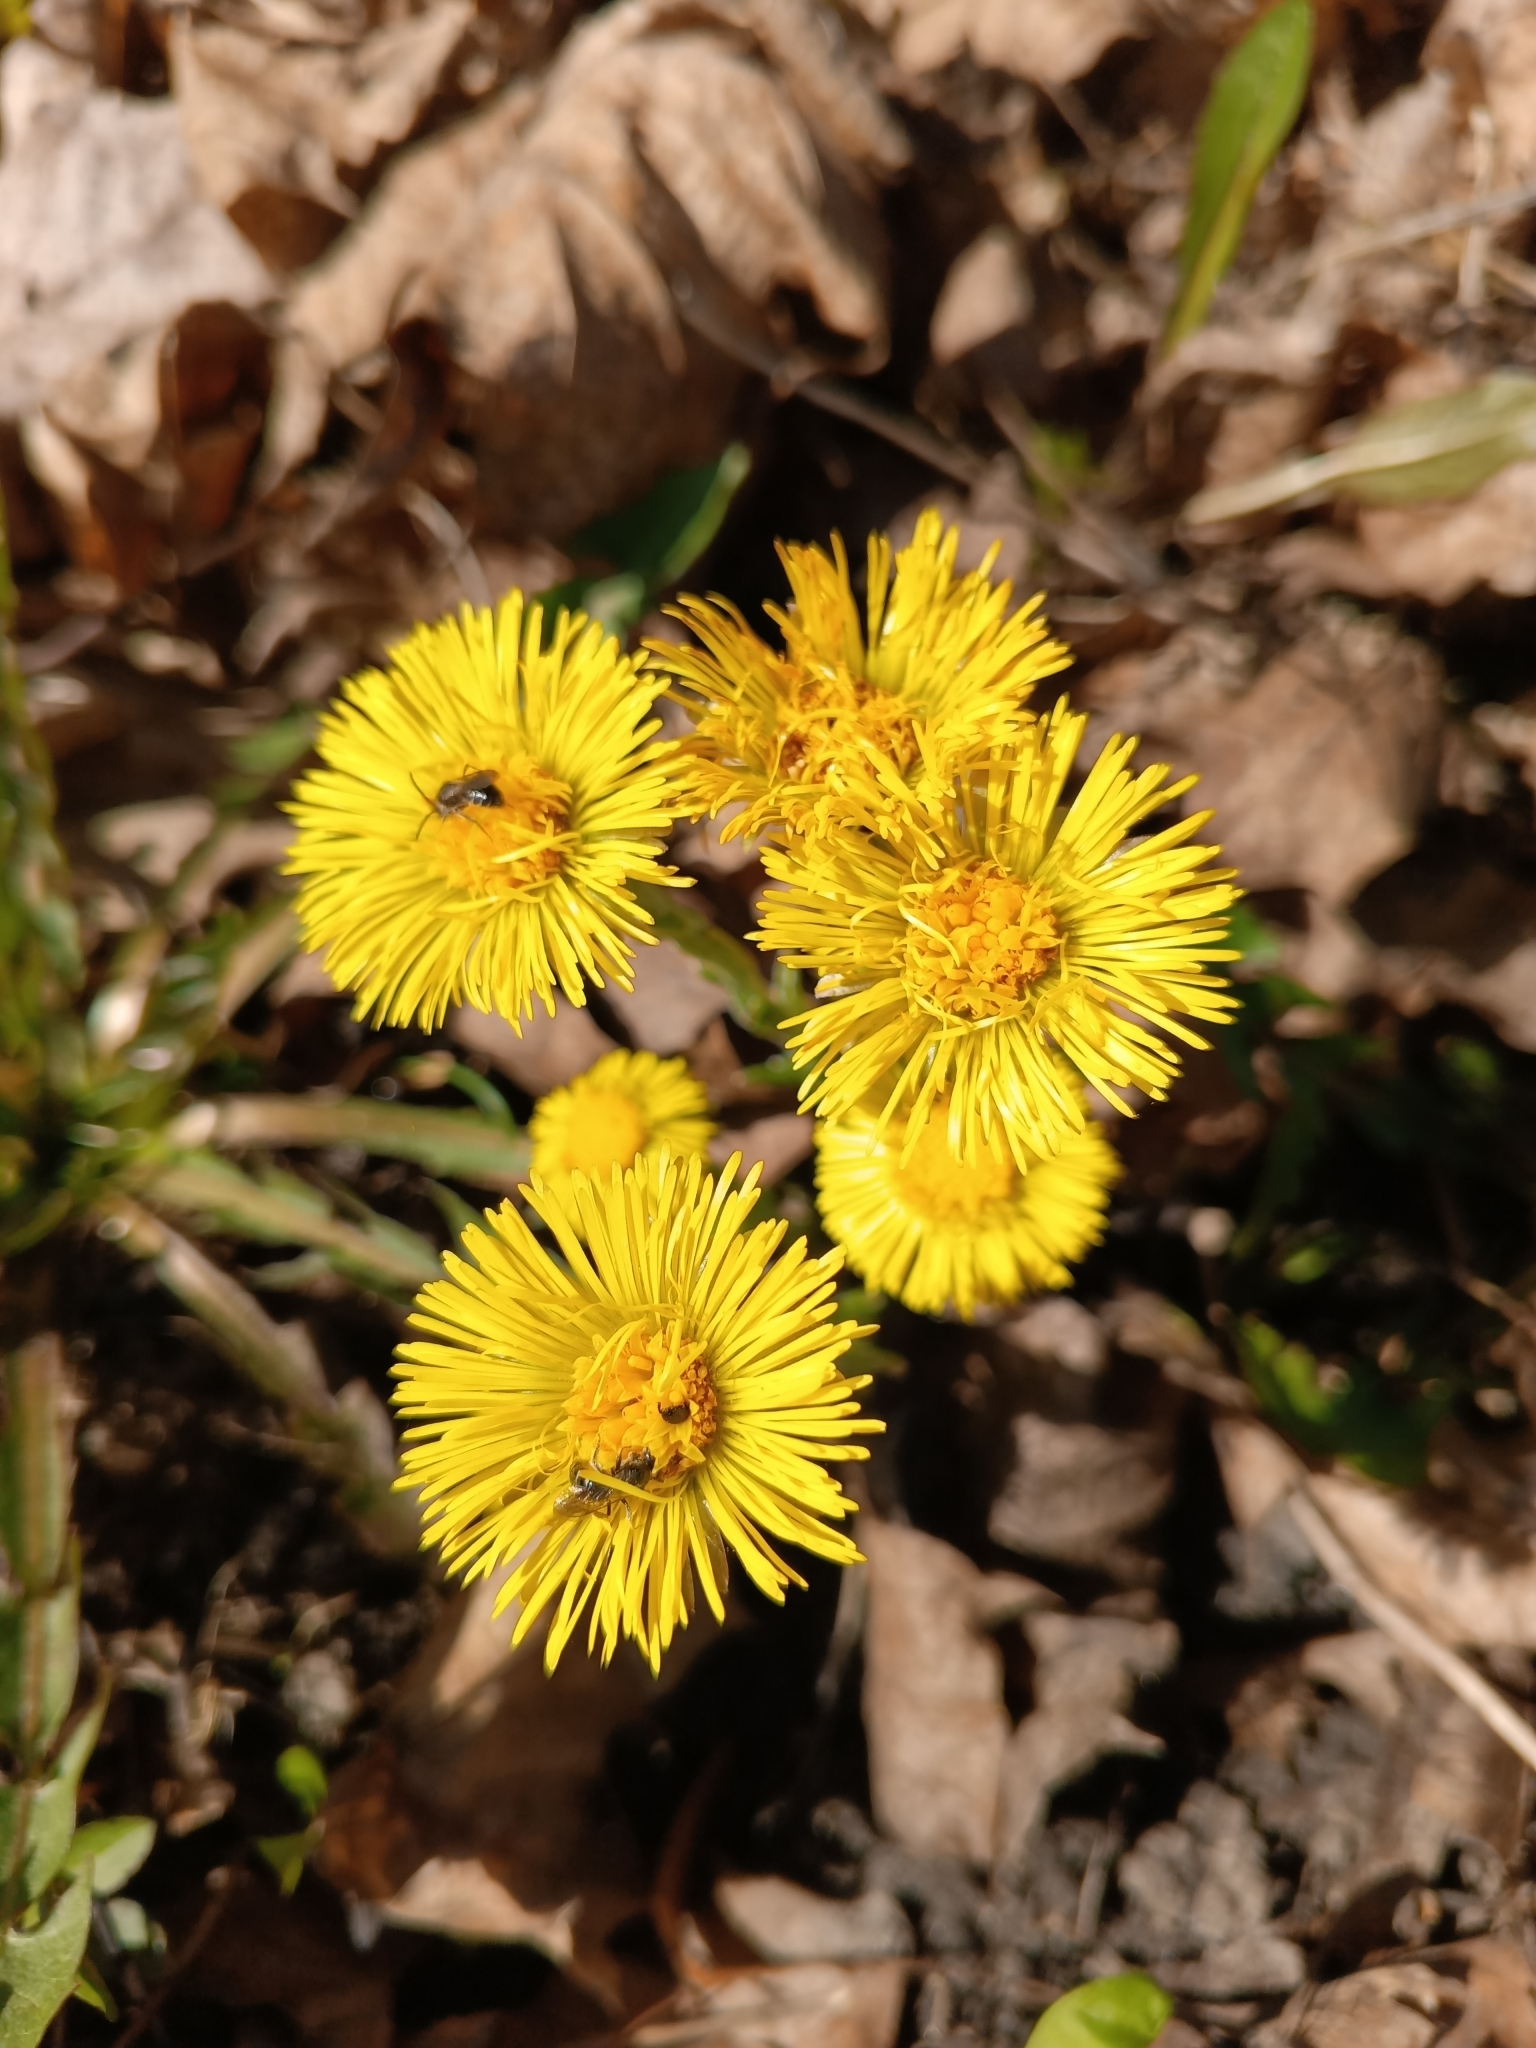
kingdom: Plantae
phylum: Tracheophyta
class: Magnoliopsida
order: Asterales
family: Asteraceae
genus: Tussilago
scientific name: Tussilago farfara
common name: Coltsfoot
